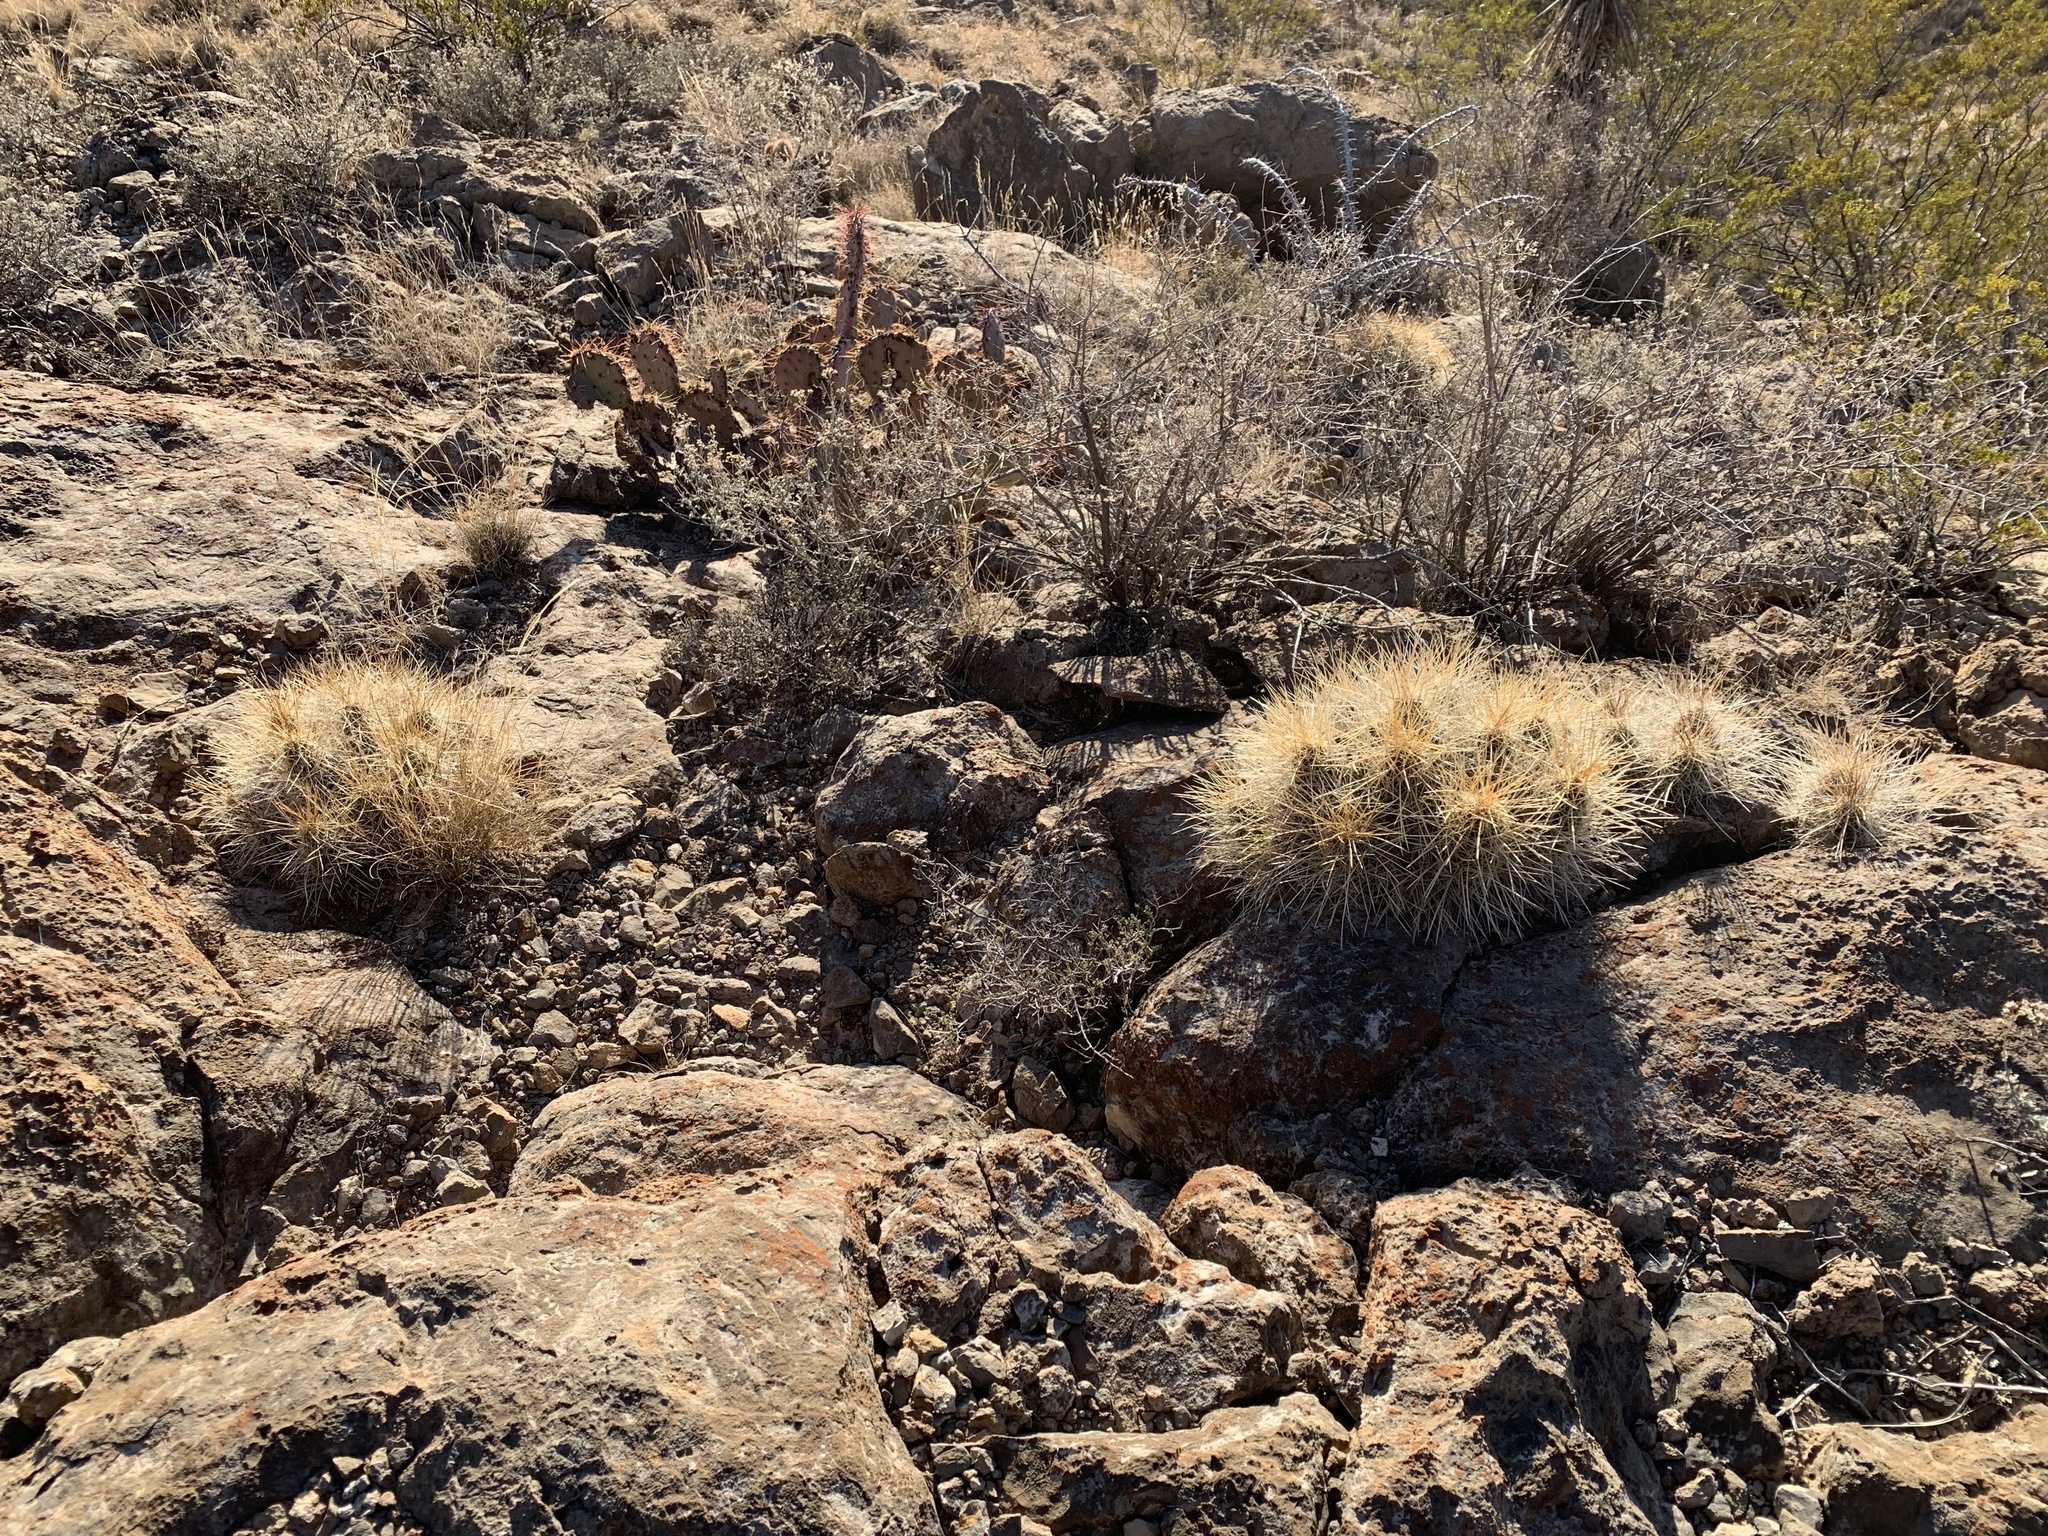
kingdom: Plantae
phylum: Tracheophyta
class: Magnoliopsida
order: Caryophyllales
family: Cactaceae
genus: Echinocereus
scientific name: Echinocereus stramineus
